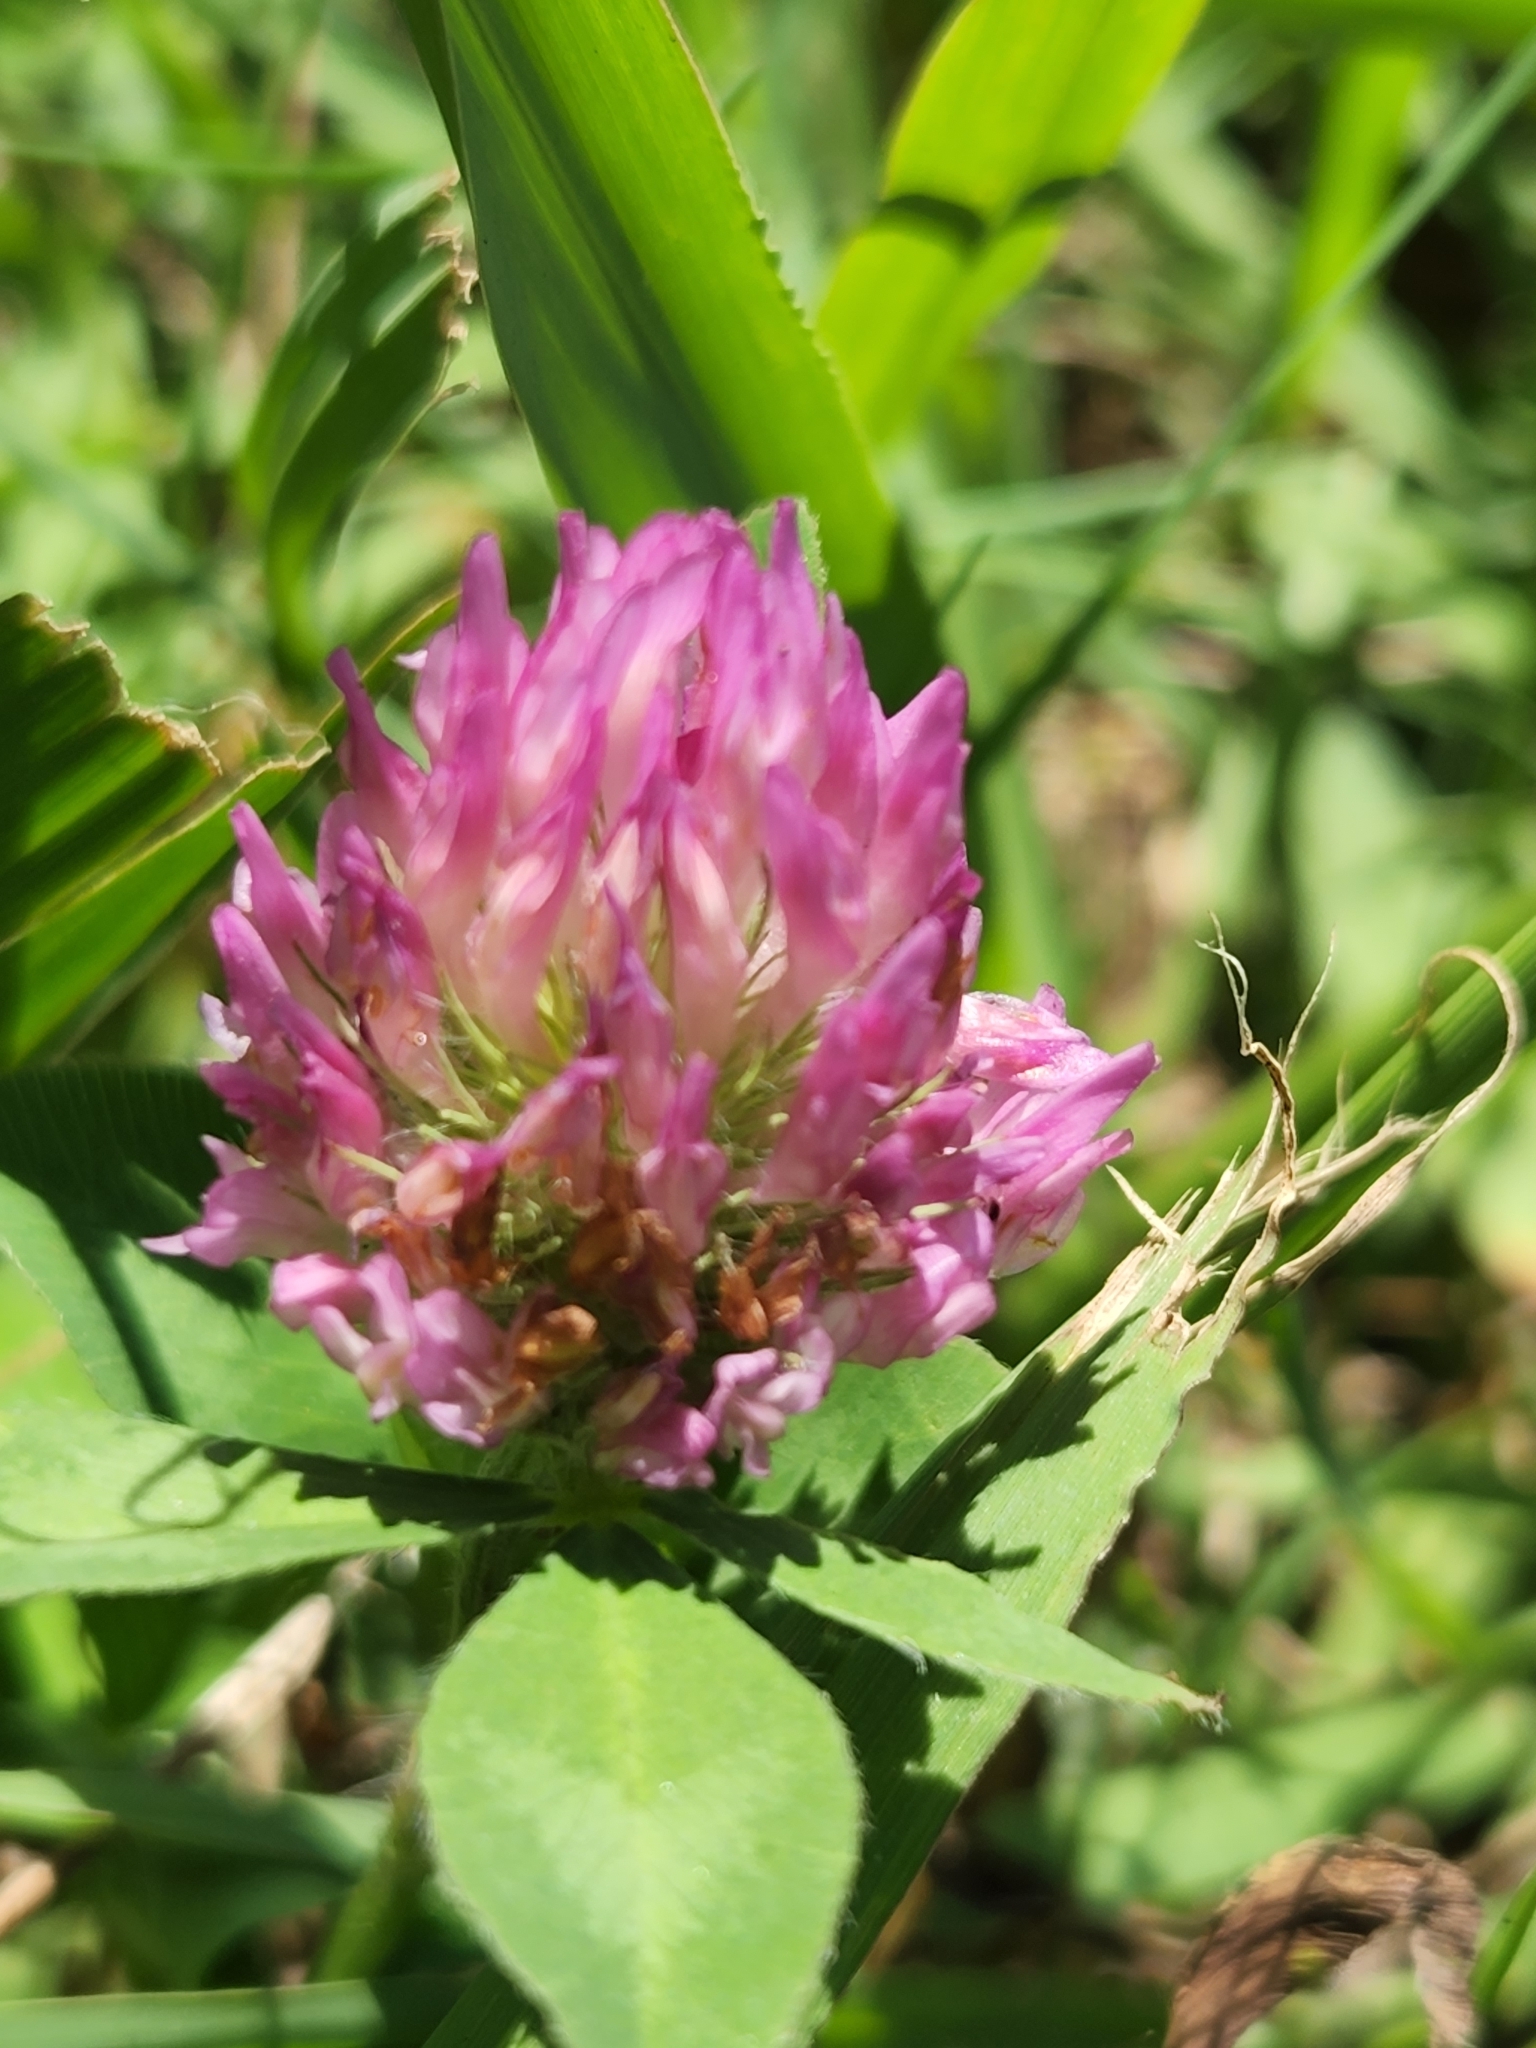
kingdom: Plantae
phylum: Tracheophyta
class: Magnoliopsida
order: Fabales
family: Fabaceae
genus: Trifolium
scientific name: Trifolium pratense
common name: Red clover
